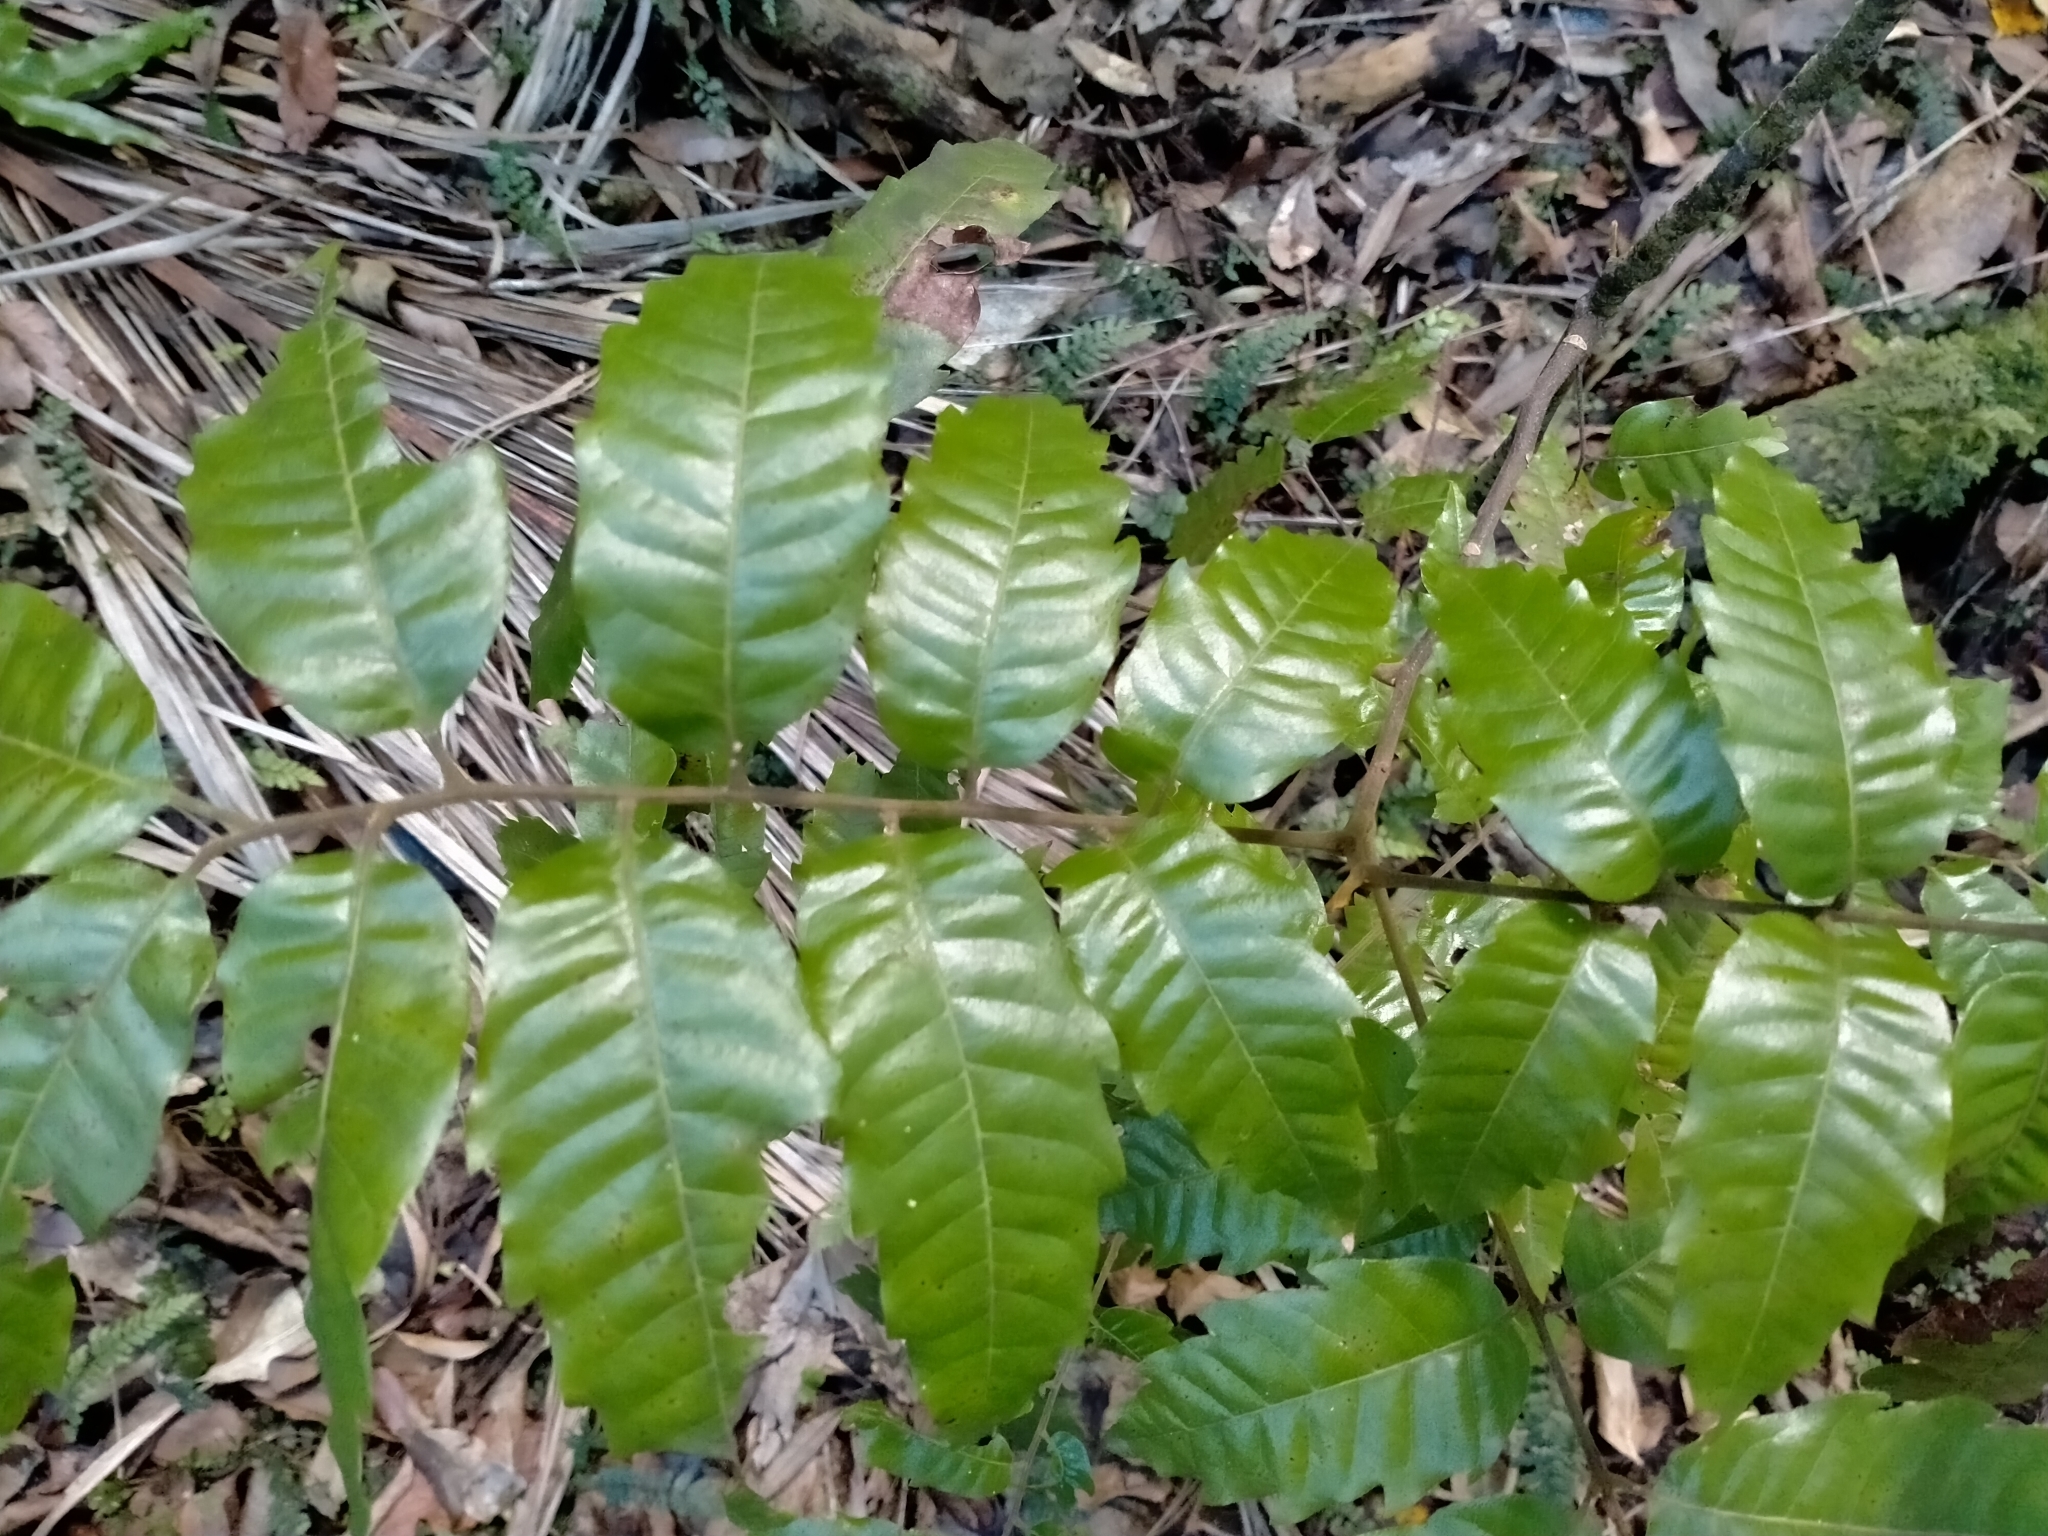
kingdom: Plantae
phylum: Tracheophyta
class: Magnoliopsida
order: Sapindales
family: Sapindaceae
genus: Alectryon
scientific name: Alectryon excelsus
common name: Three kings titoki
